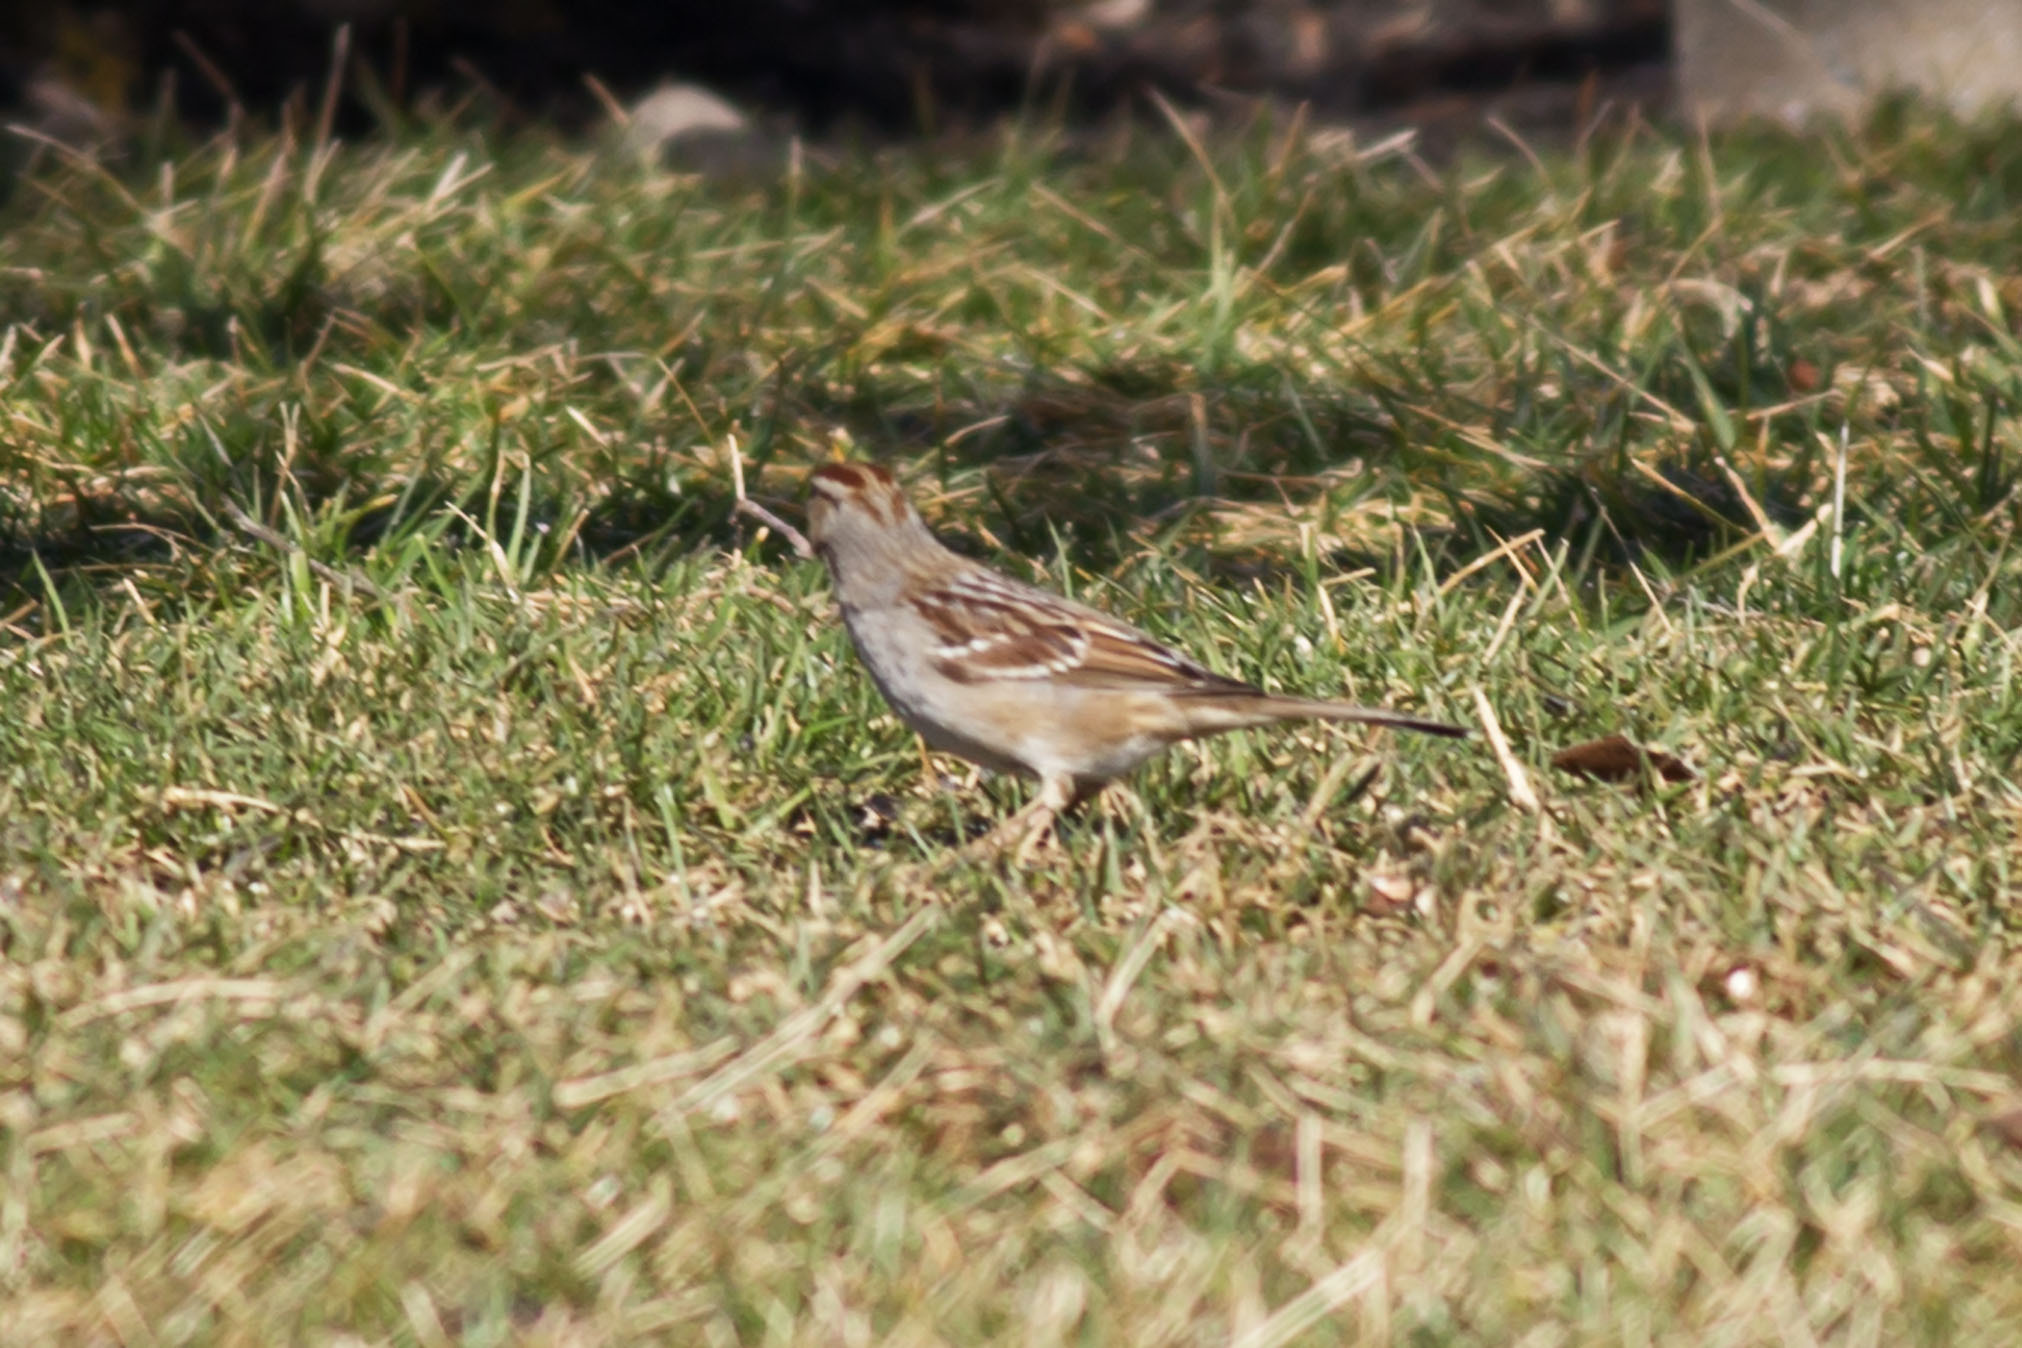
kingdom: Animalia
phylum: Chordata
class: Aves
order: Passeriformes
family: Passerellidae
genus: Zonotrichia
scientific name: Zonotrichia leucophrys
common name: White-crowned sparrow
